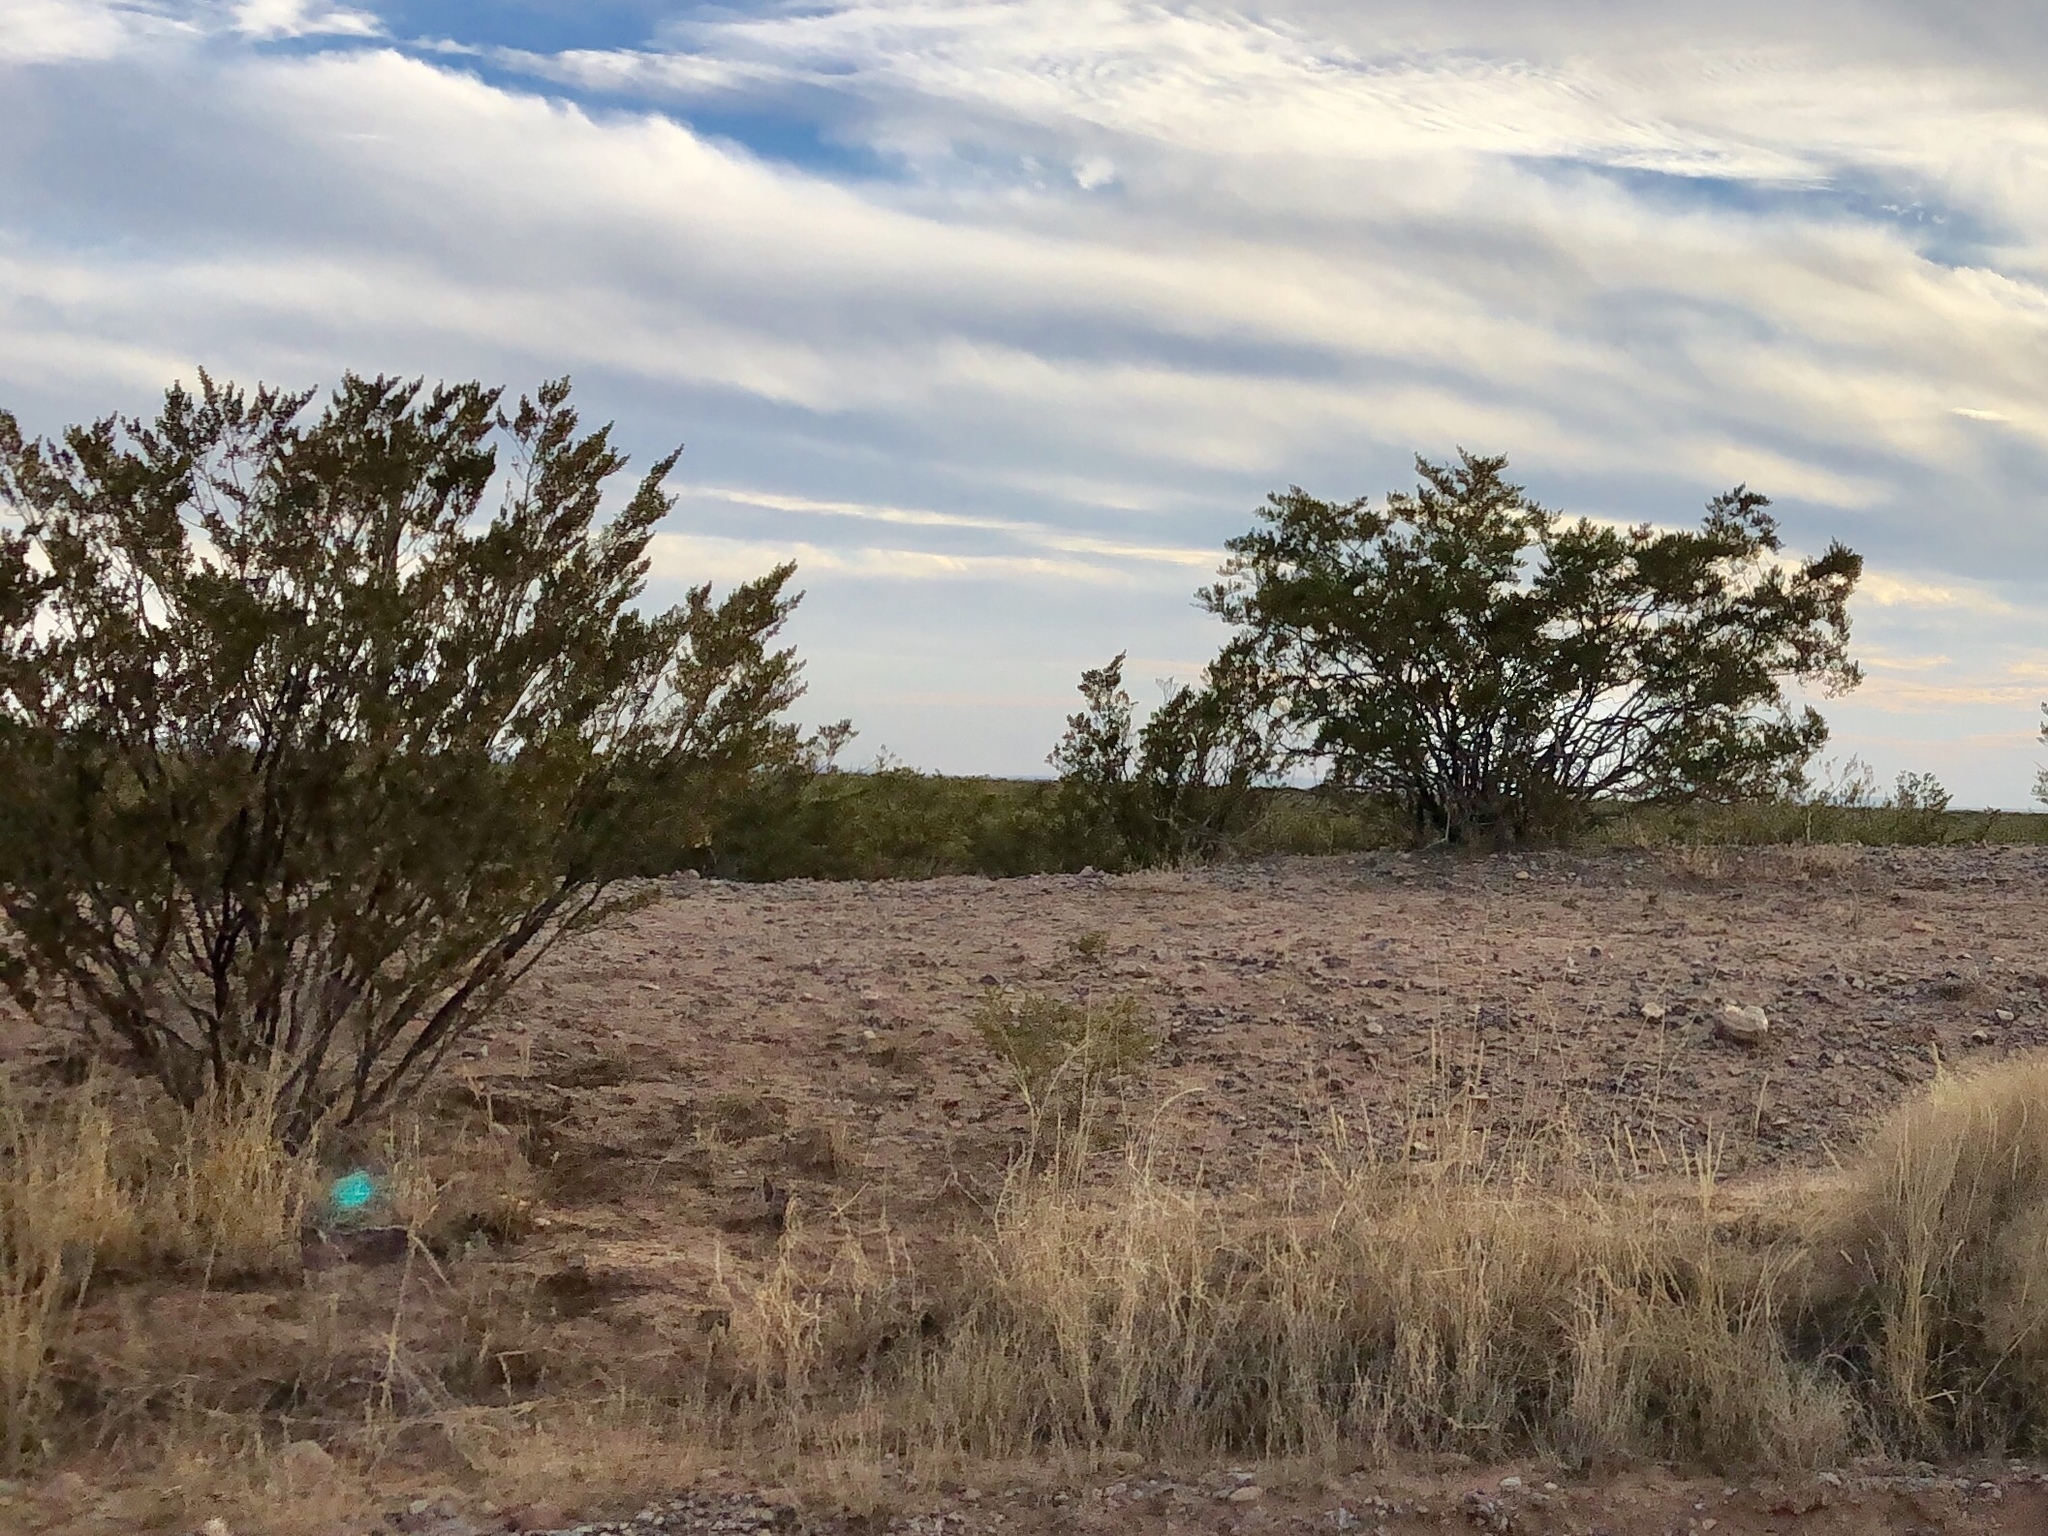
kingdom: Plantae
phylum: Tracheophyta
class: Magnoliopsida
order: Zygophyllales
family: Zygophyllaceae
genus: Larrea
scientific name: Larrea tridentata
